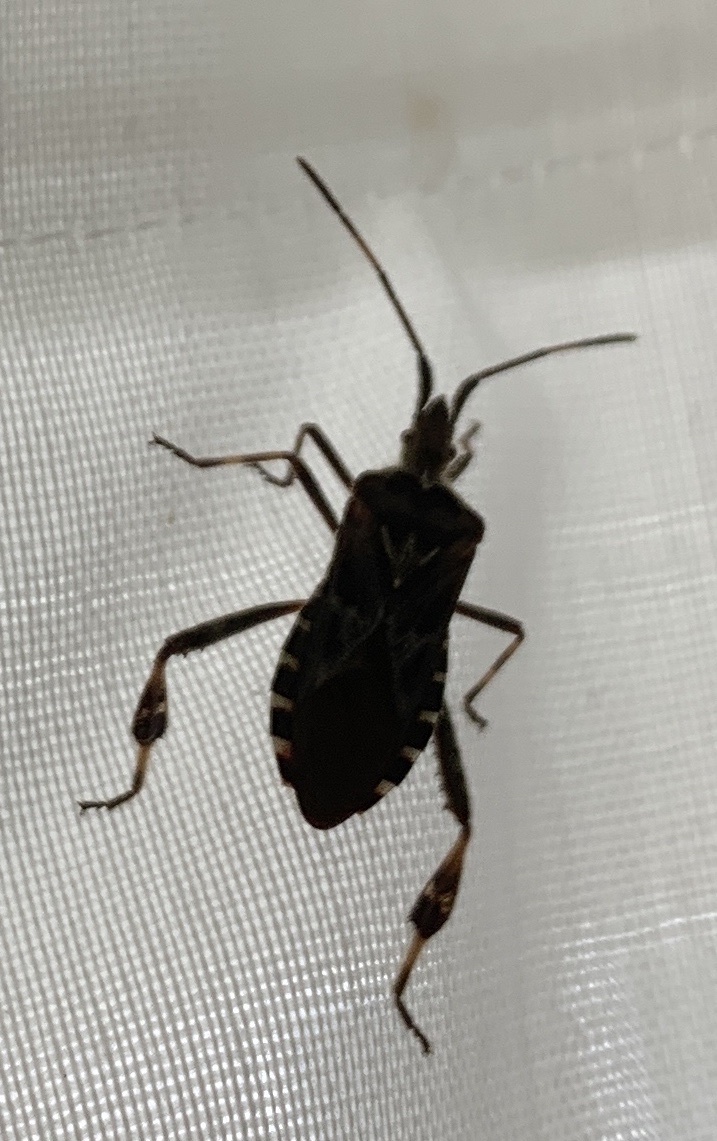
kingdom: Animalia
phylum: Arthropoda
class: Insecta
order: Hemiptera
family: Coreidae
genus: Leptoglossus
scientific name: Leptoglossus occidentalis
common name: Western conifer-seed bug
